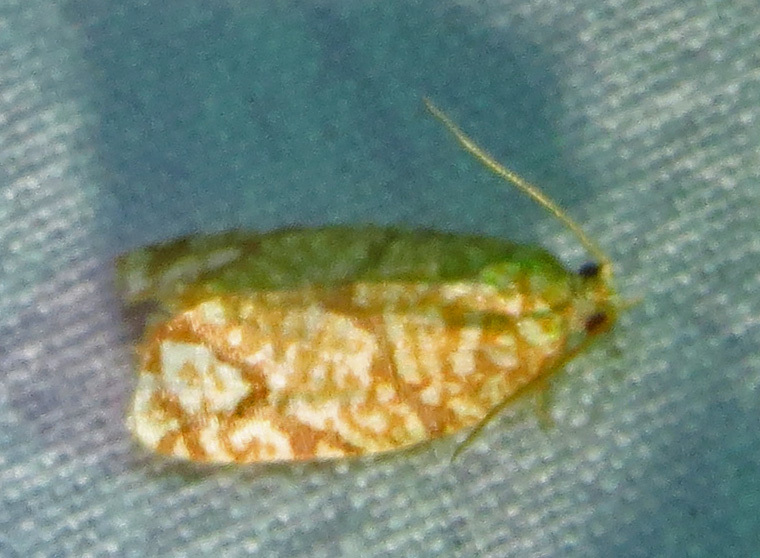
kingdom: Animalia
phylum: Arthropoda
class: Insecta
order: Lepidoptera
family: Tortricidae
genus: Argyrotaenia
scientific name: Argyrotaenia quercifoliana
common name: Yellow-winged oak leafroller moth
